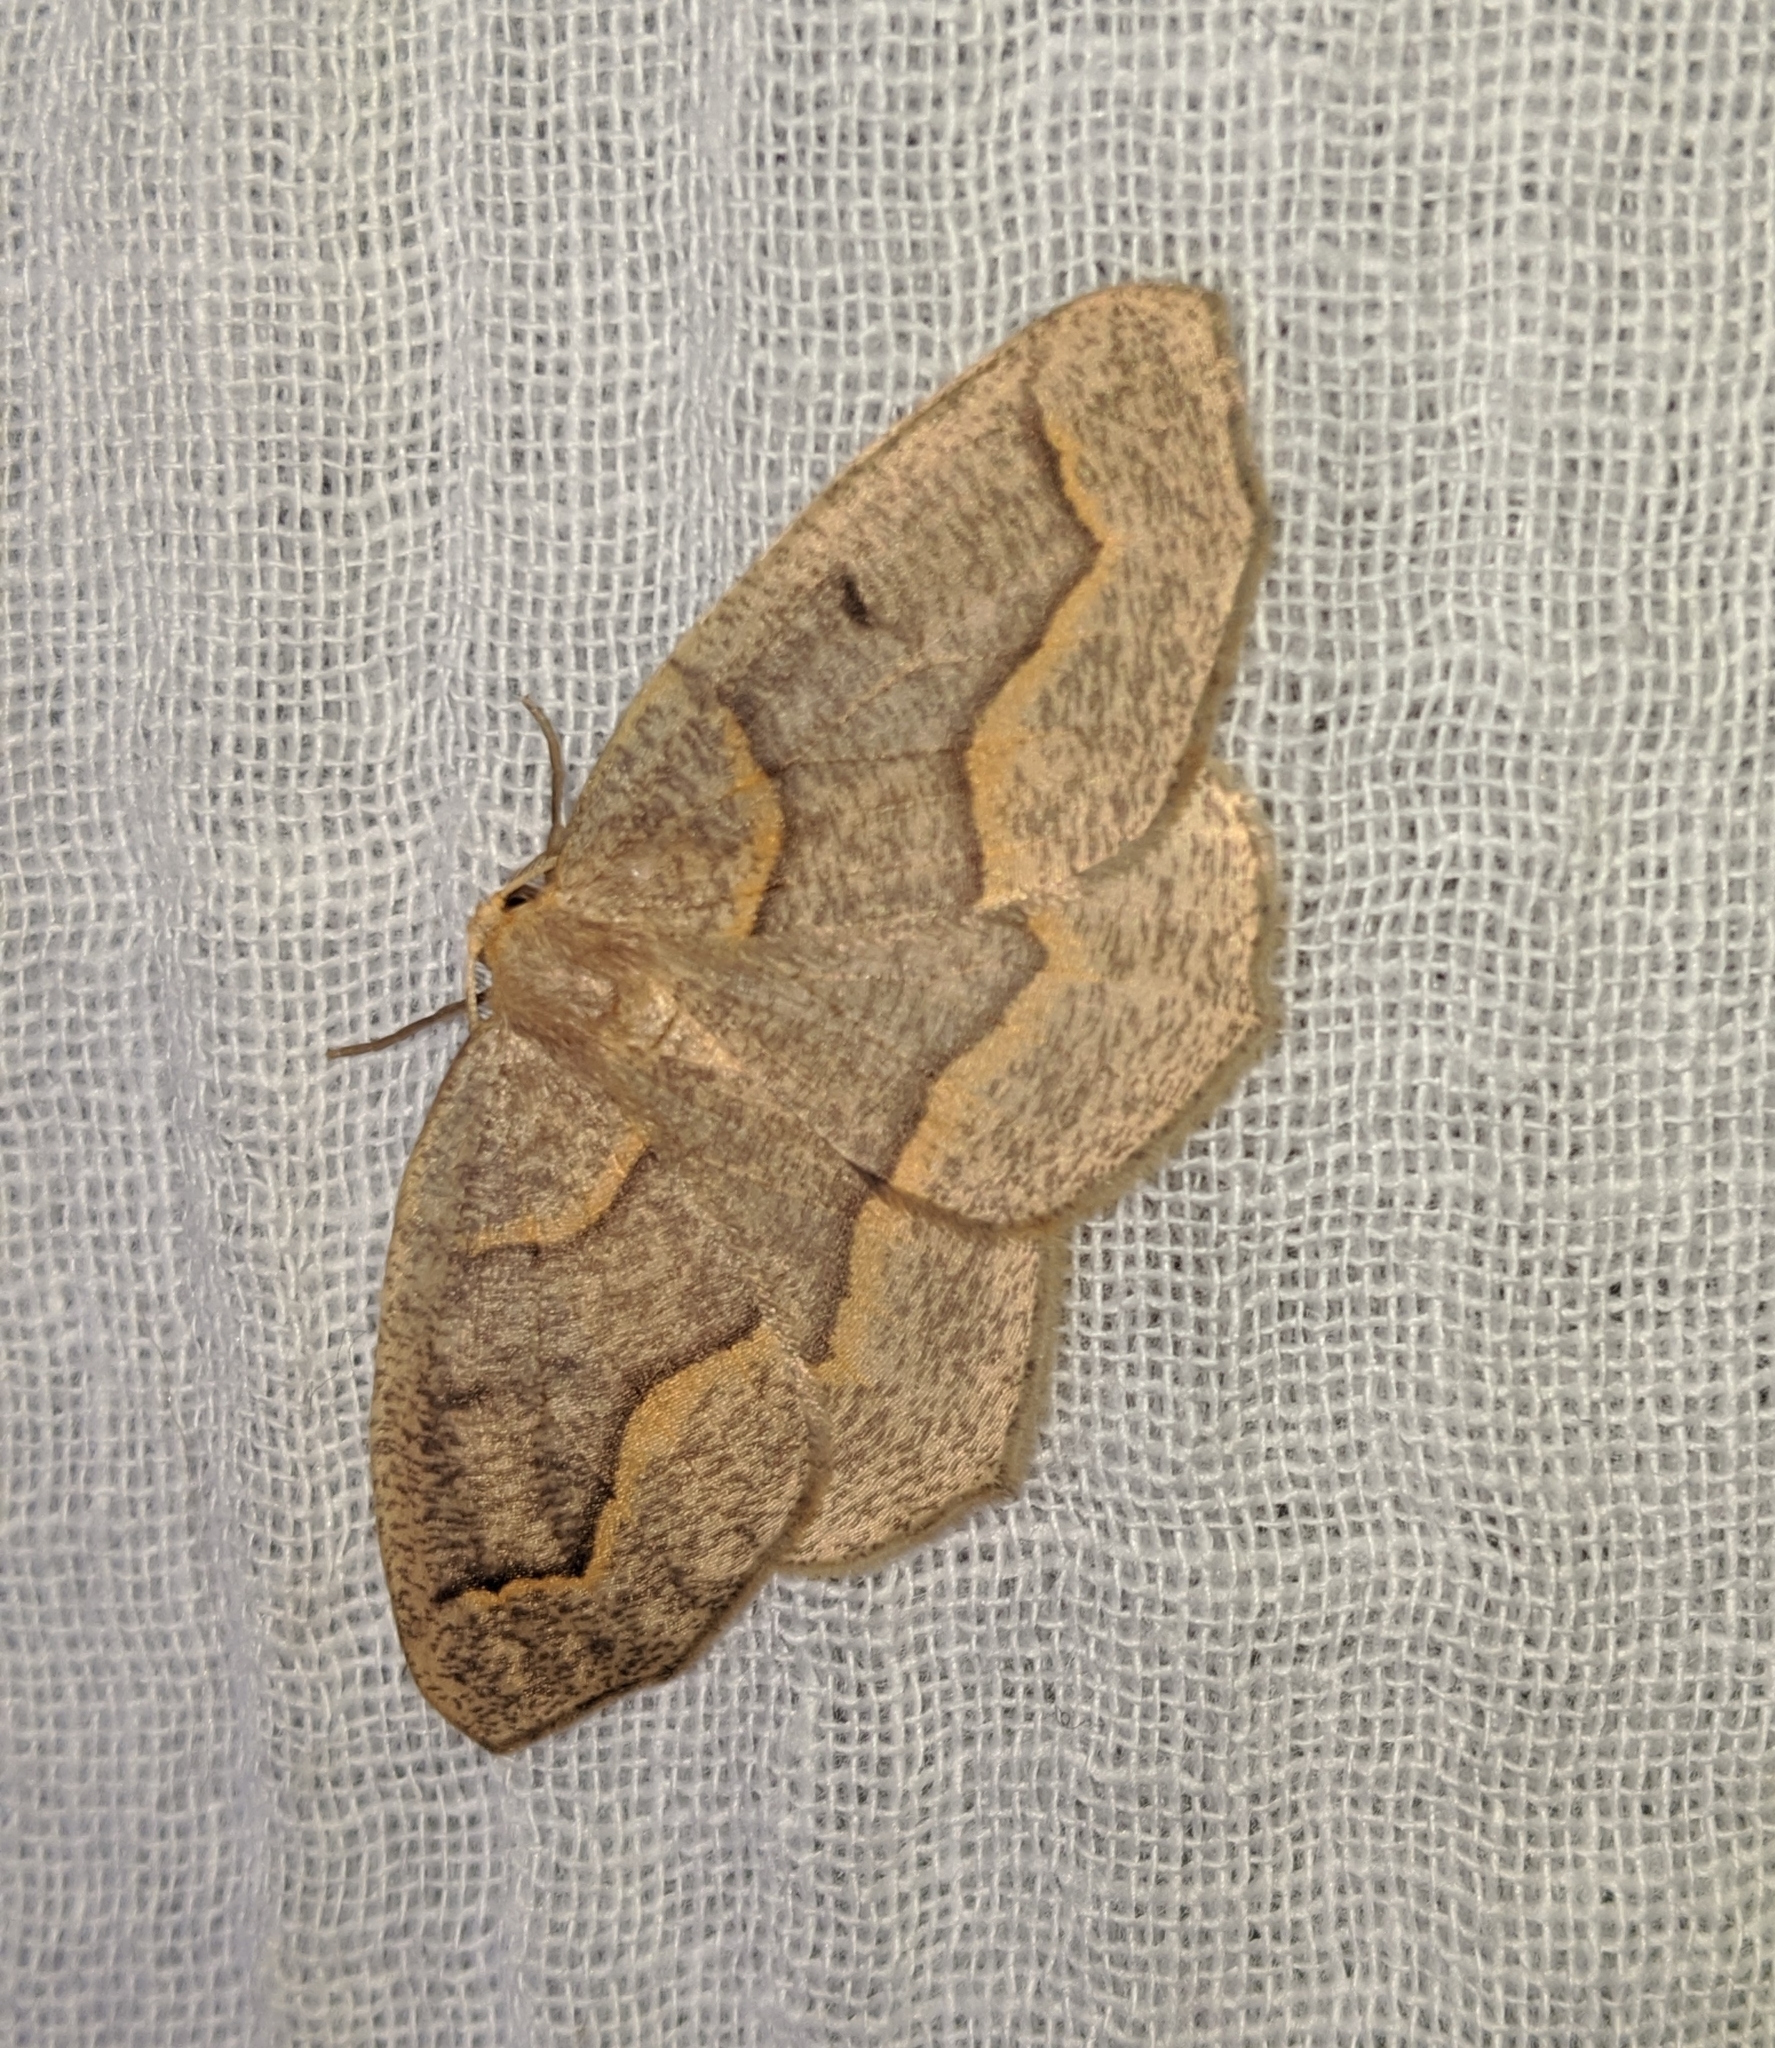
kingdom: Animalia
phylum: Arthropoda
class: Insecta
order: Lepidoptera
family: Geometridae
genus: Lambdina
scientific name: Lambdina fiscellaria
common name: Hemlock looper
